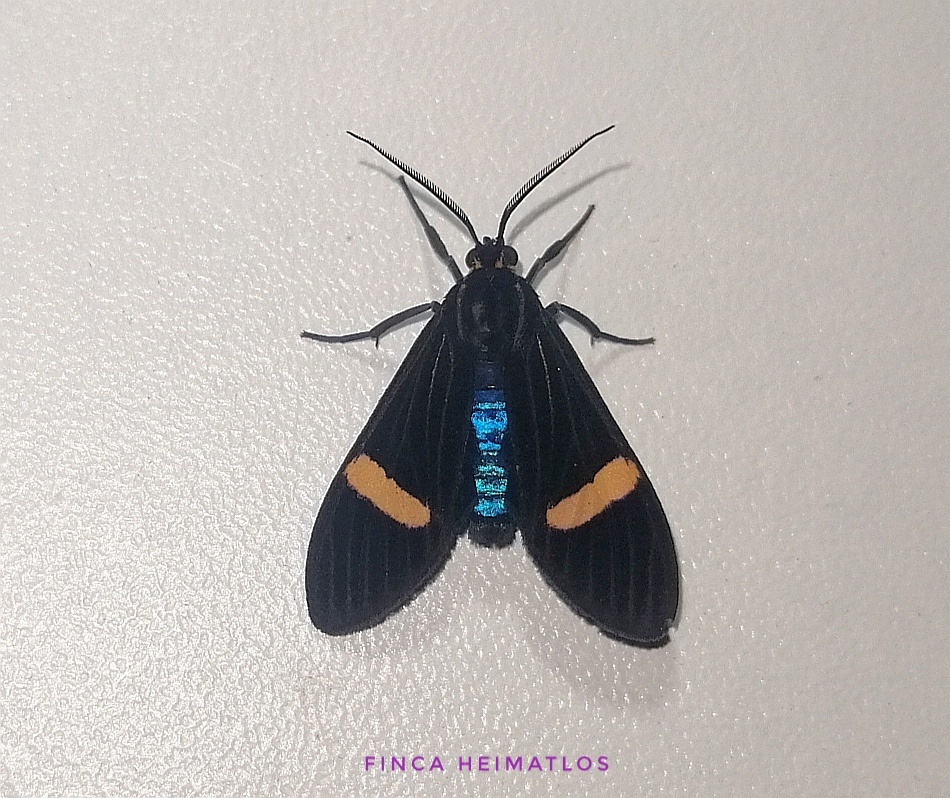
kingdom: Animalia
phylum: Arthropoda
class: Insecta
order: Lepidoptera
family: Erebidae
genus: Aclytia
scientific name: Aclytia hoffmannsi
